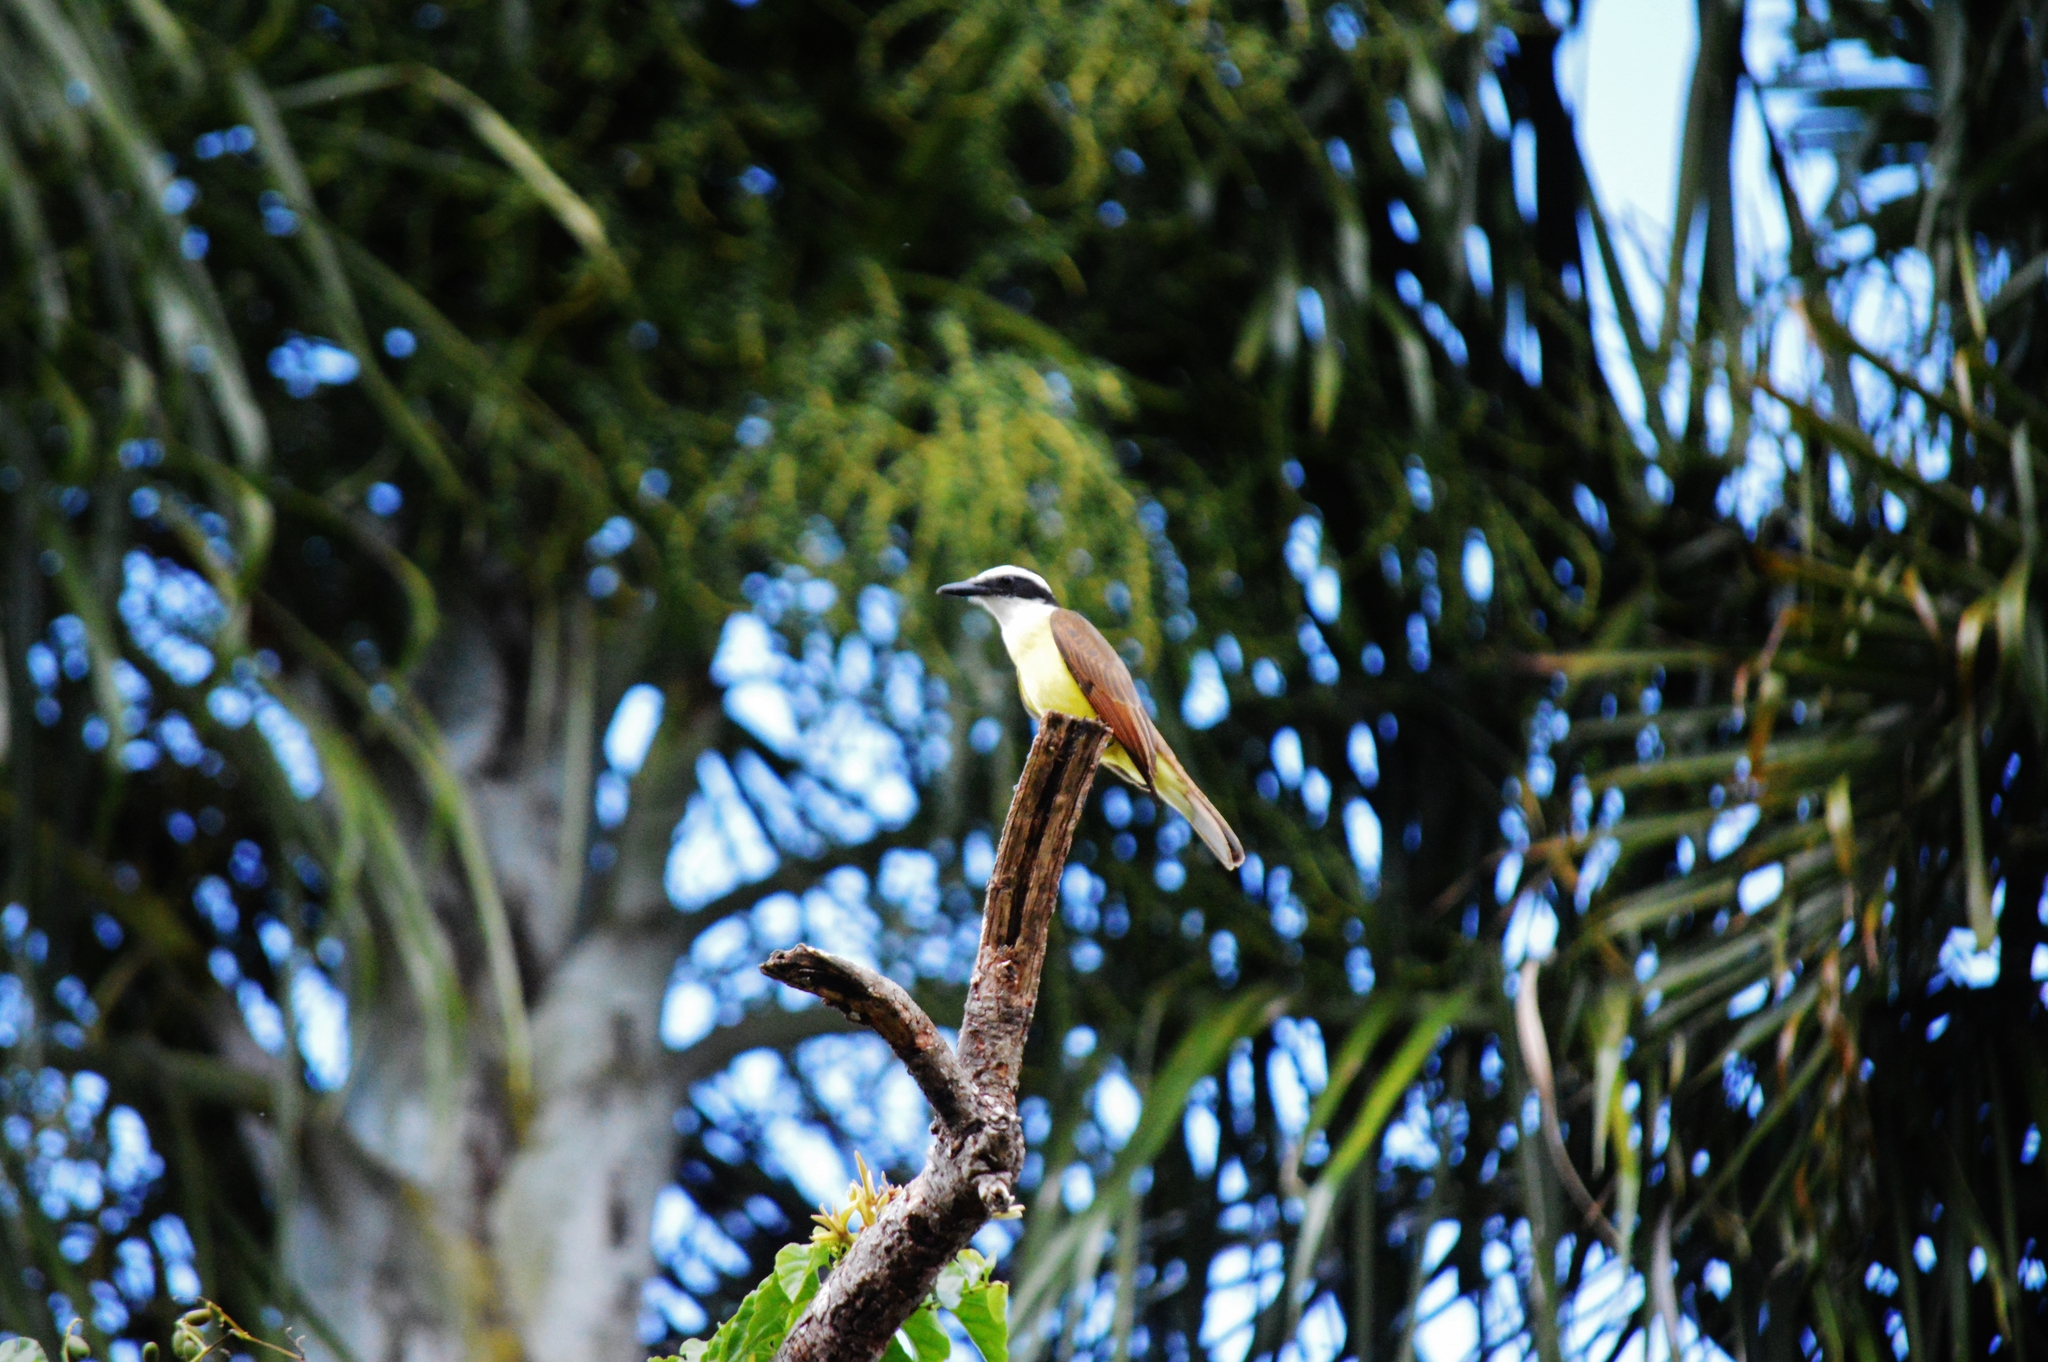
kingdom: Animalia
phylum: Chordata
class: Aves
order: Passeriformes
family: Tyrannidae
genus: Pitangus
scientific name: Pitangus sulphuratus
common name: Great kiskadee
